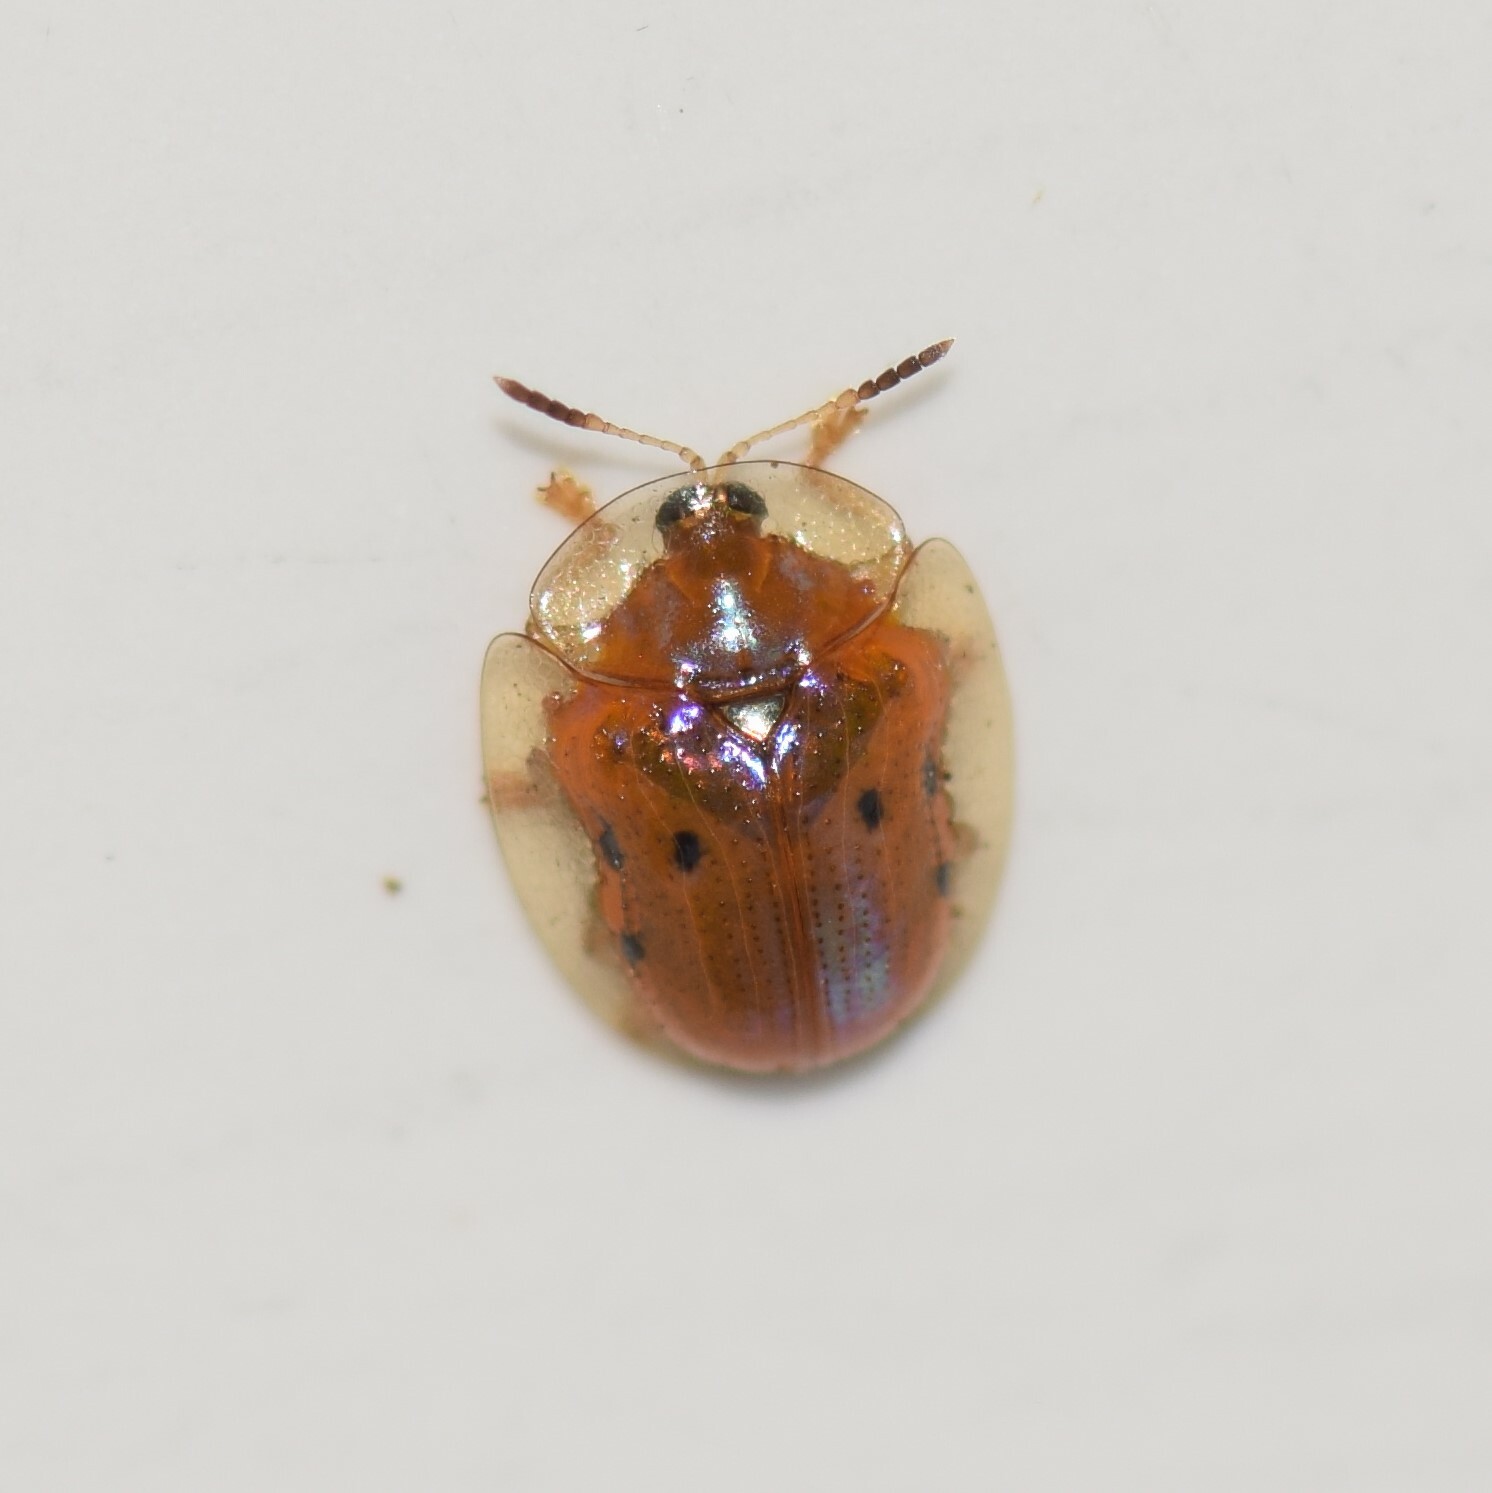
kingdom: Animalia
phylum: Arthropoda
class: Insecta
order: Coleoptera
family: Chrysomelidae
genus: Charidotella
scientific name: Charidotella sexpunctata
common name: Golden tortoise beetle
